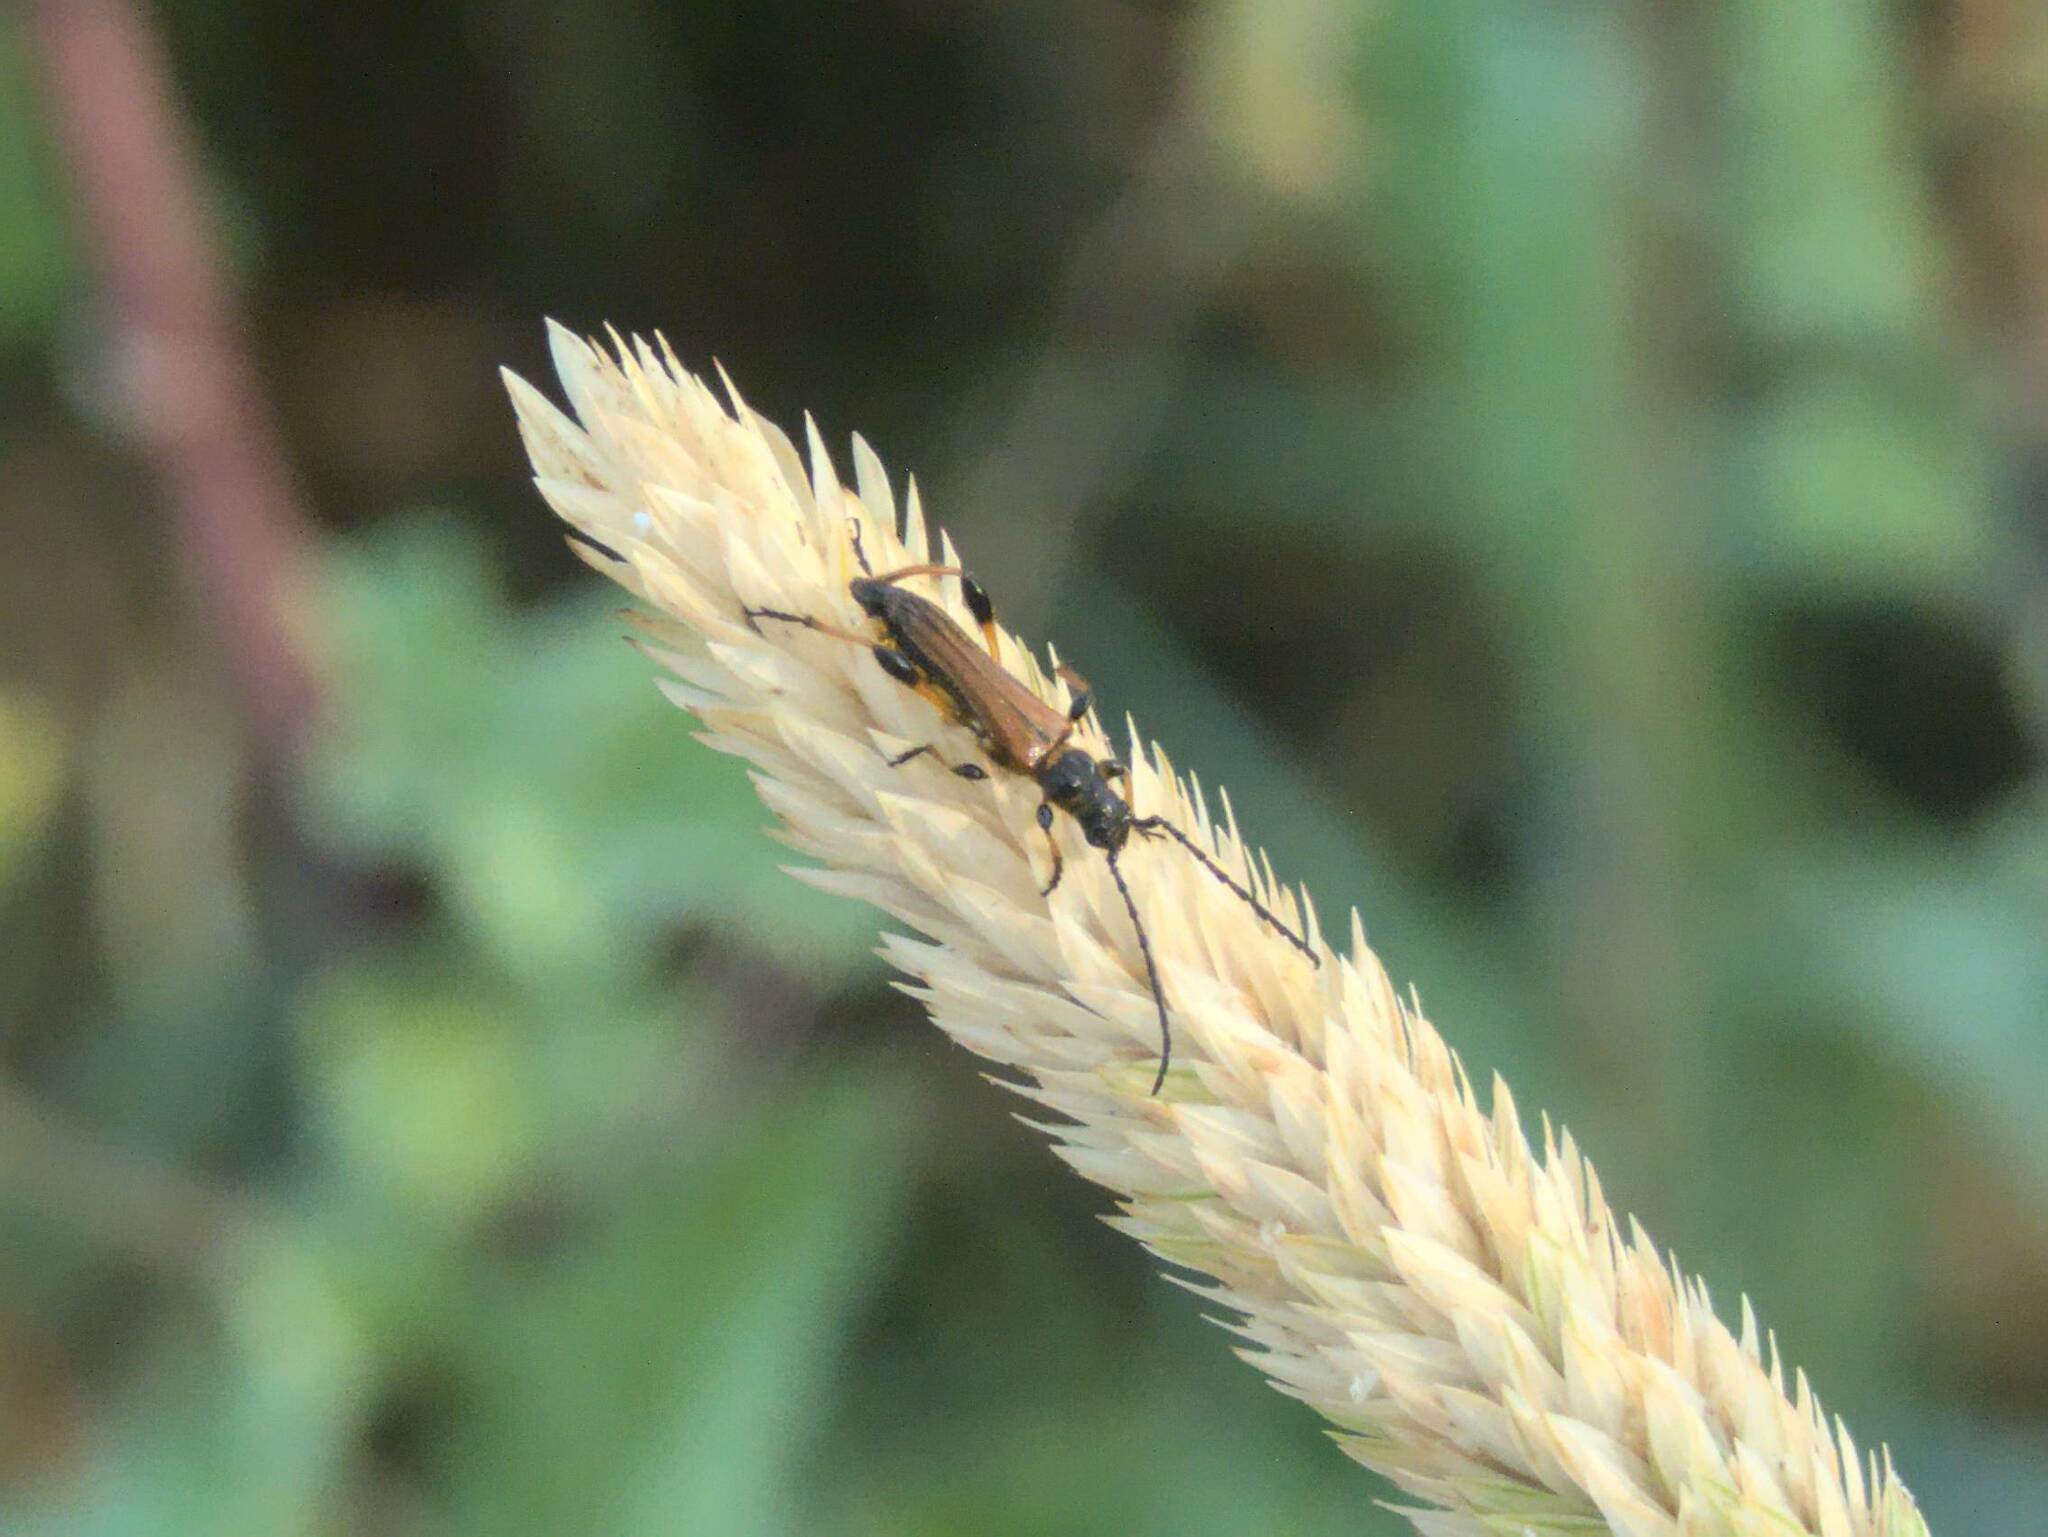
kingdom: Animalia
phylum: Arthropoda
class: Insecta
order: Coleoptera
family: Cerambycidae
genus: Stenopterus
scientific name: Stenopterus ater
